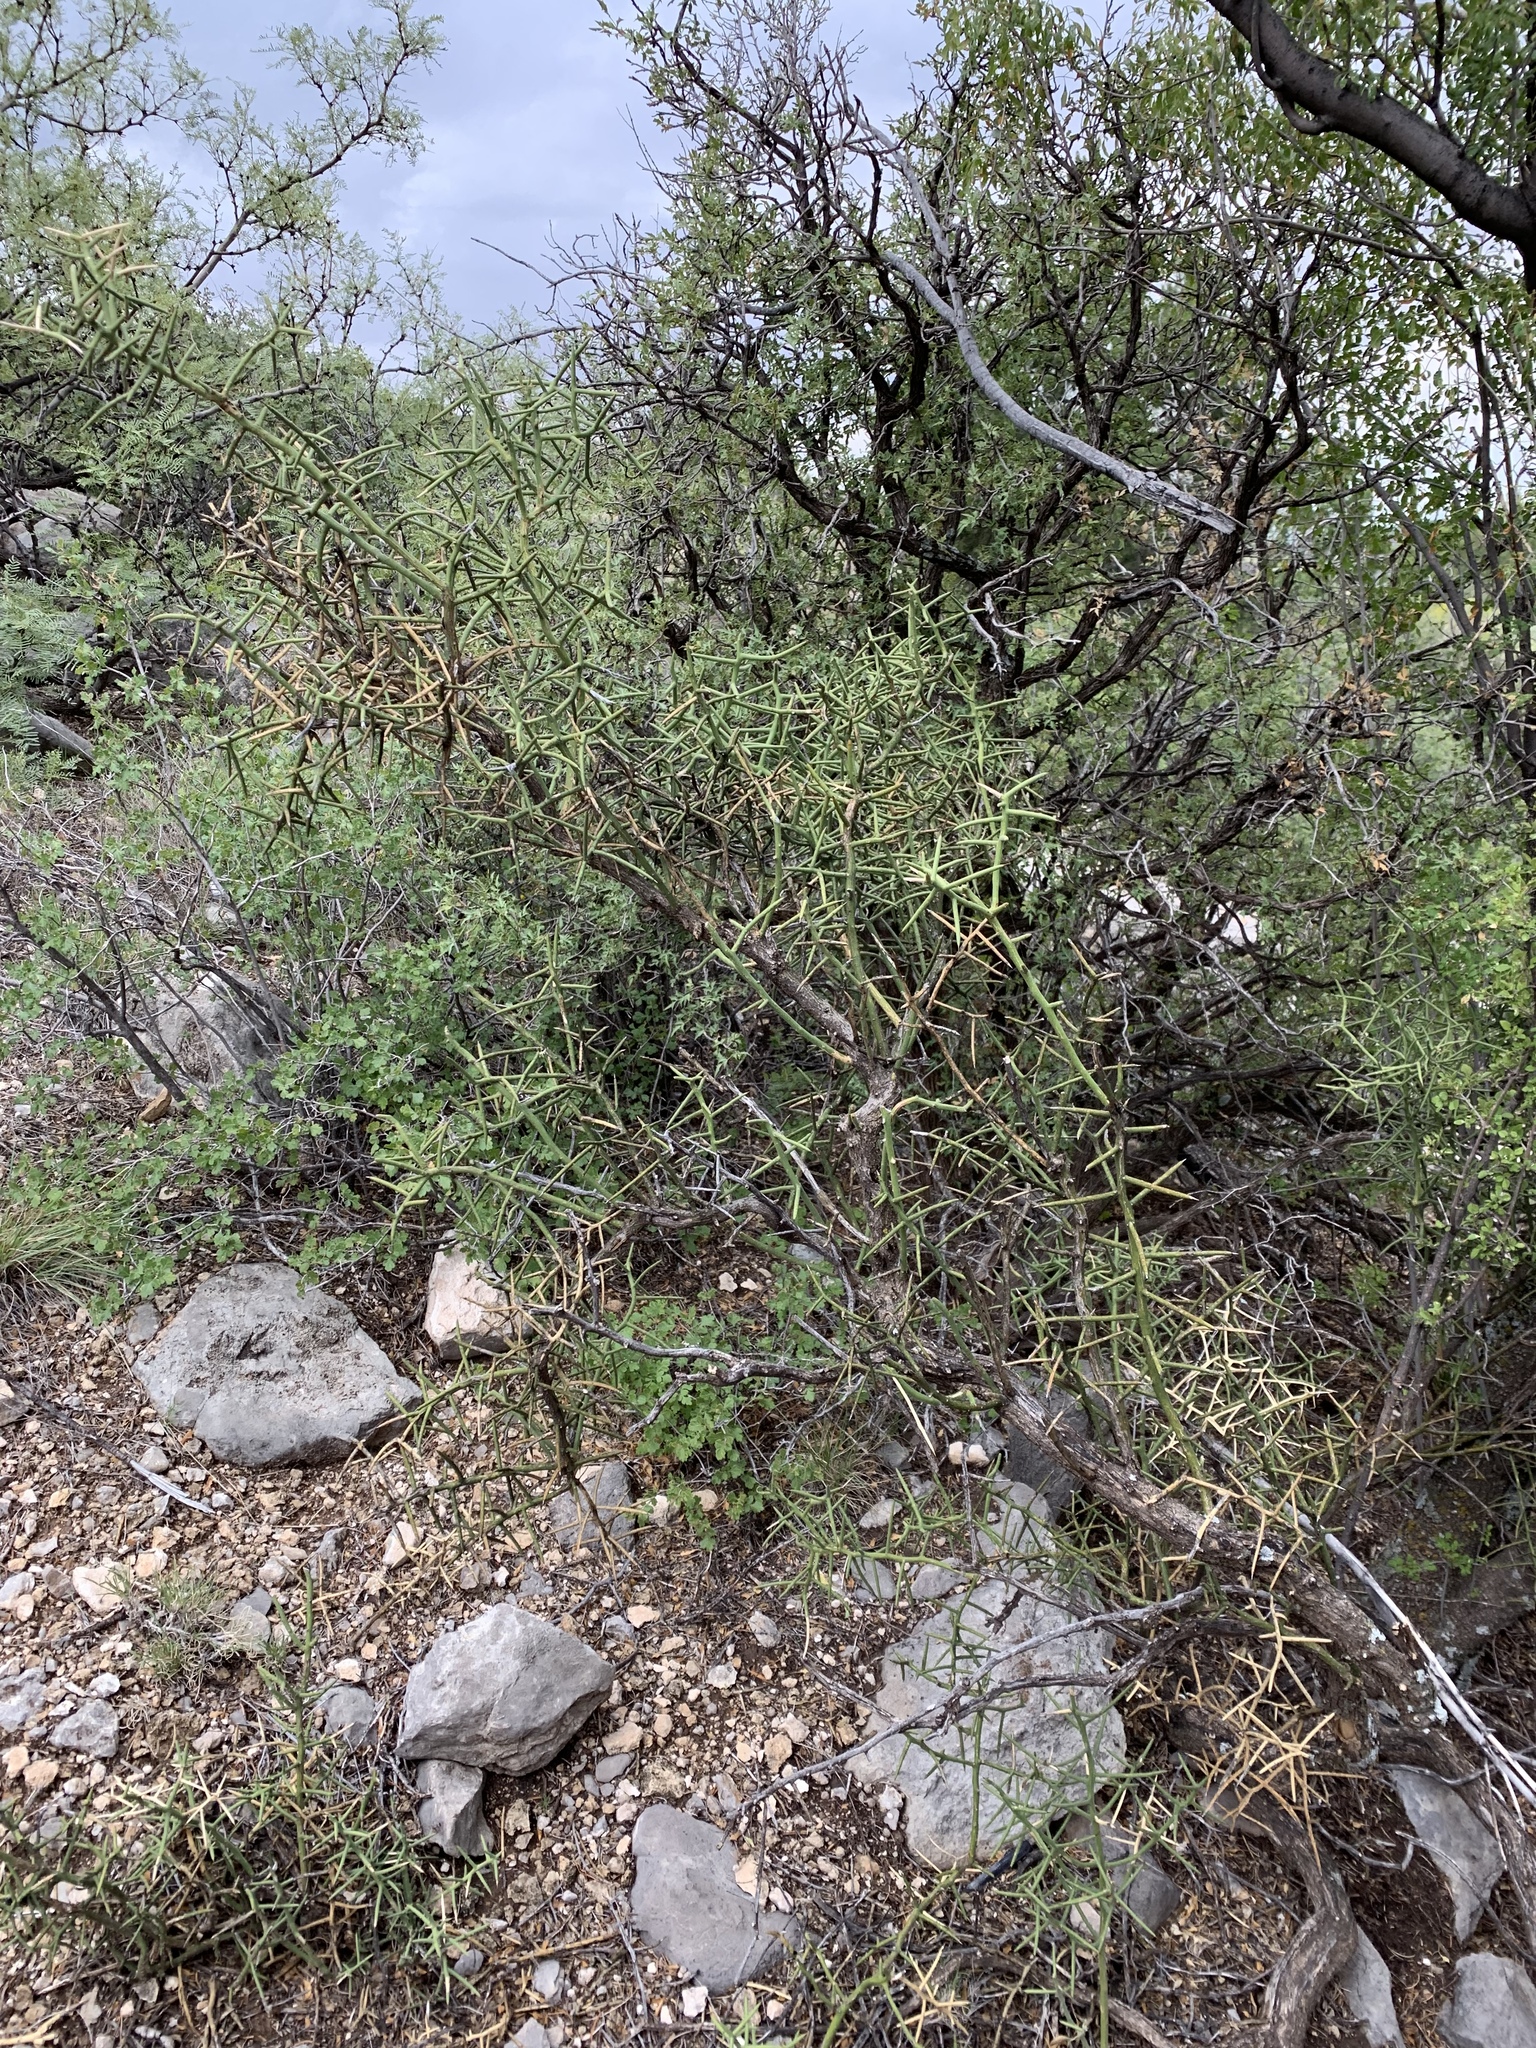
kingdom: Plantae
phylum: Tracheophyta
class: Magnoliopsida
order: Brassicales
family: Koeberliniaceae
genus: Koeberlinia
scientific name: Koeberlinia spinosa
